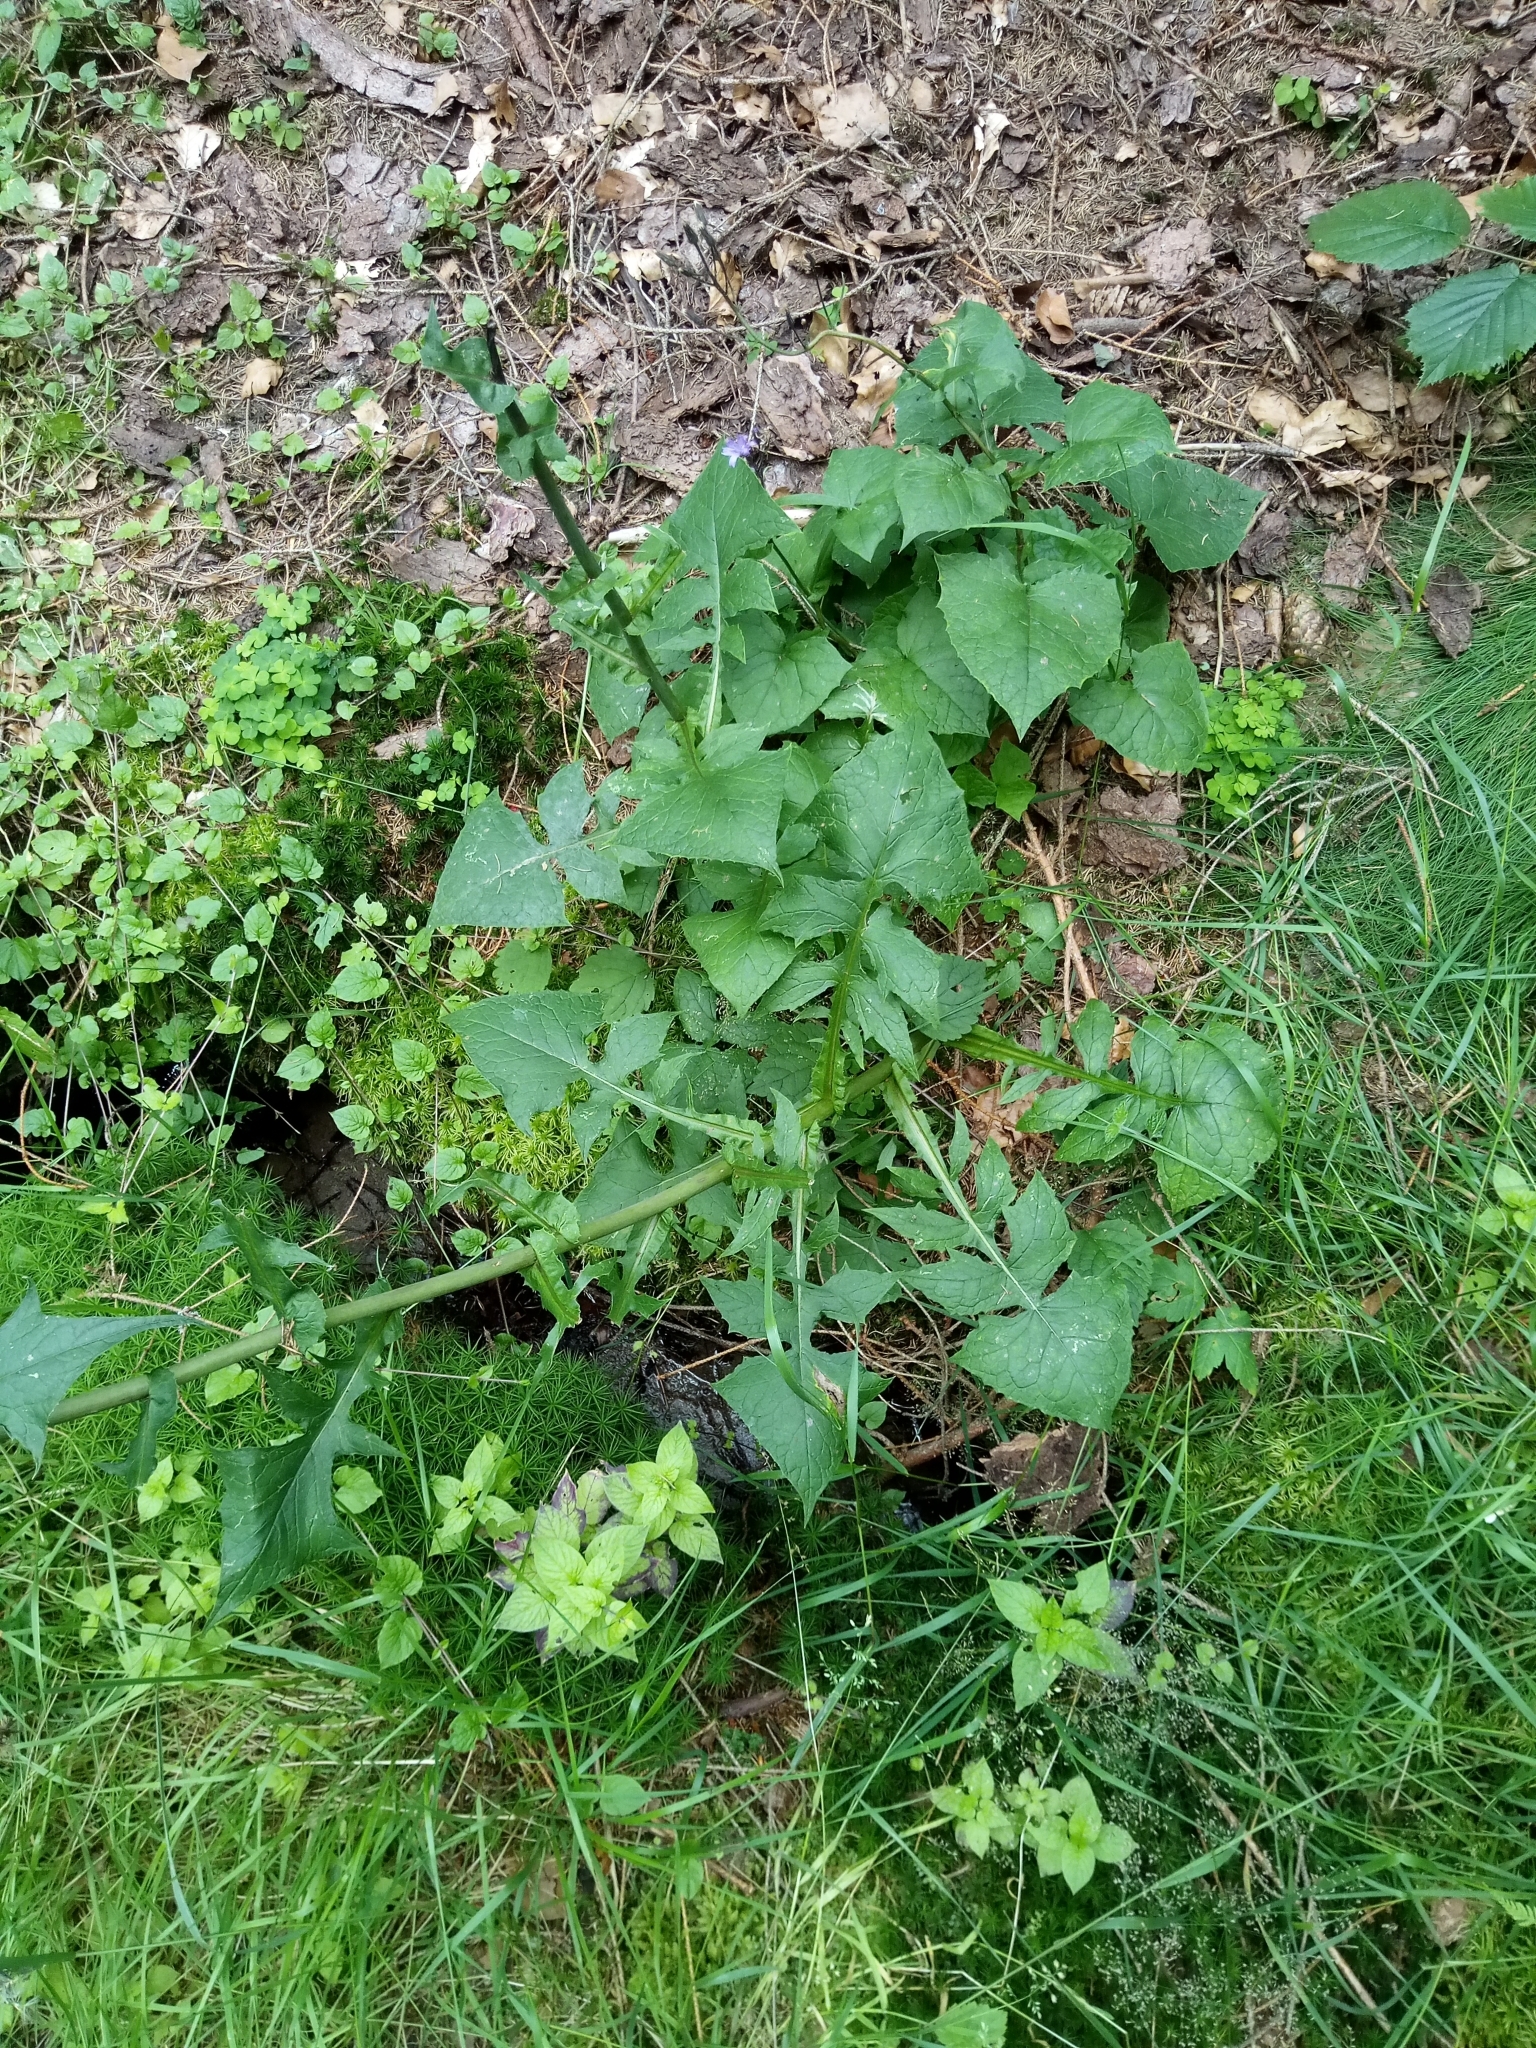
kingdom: Plantae
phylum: Tracheophyta
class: Magnoliopsida
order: Asterales
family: Asteraceae
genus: Cicerbita
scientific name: Cicerbita alpina
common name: Alpine blue-sow-thistle
